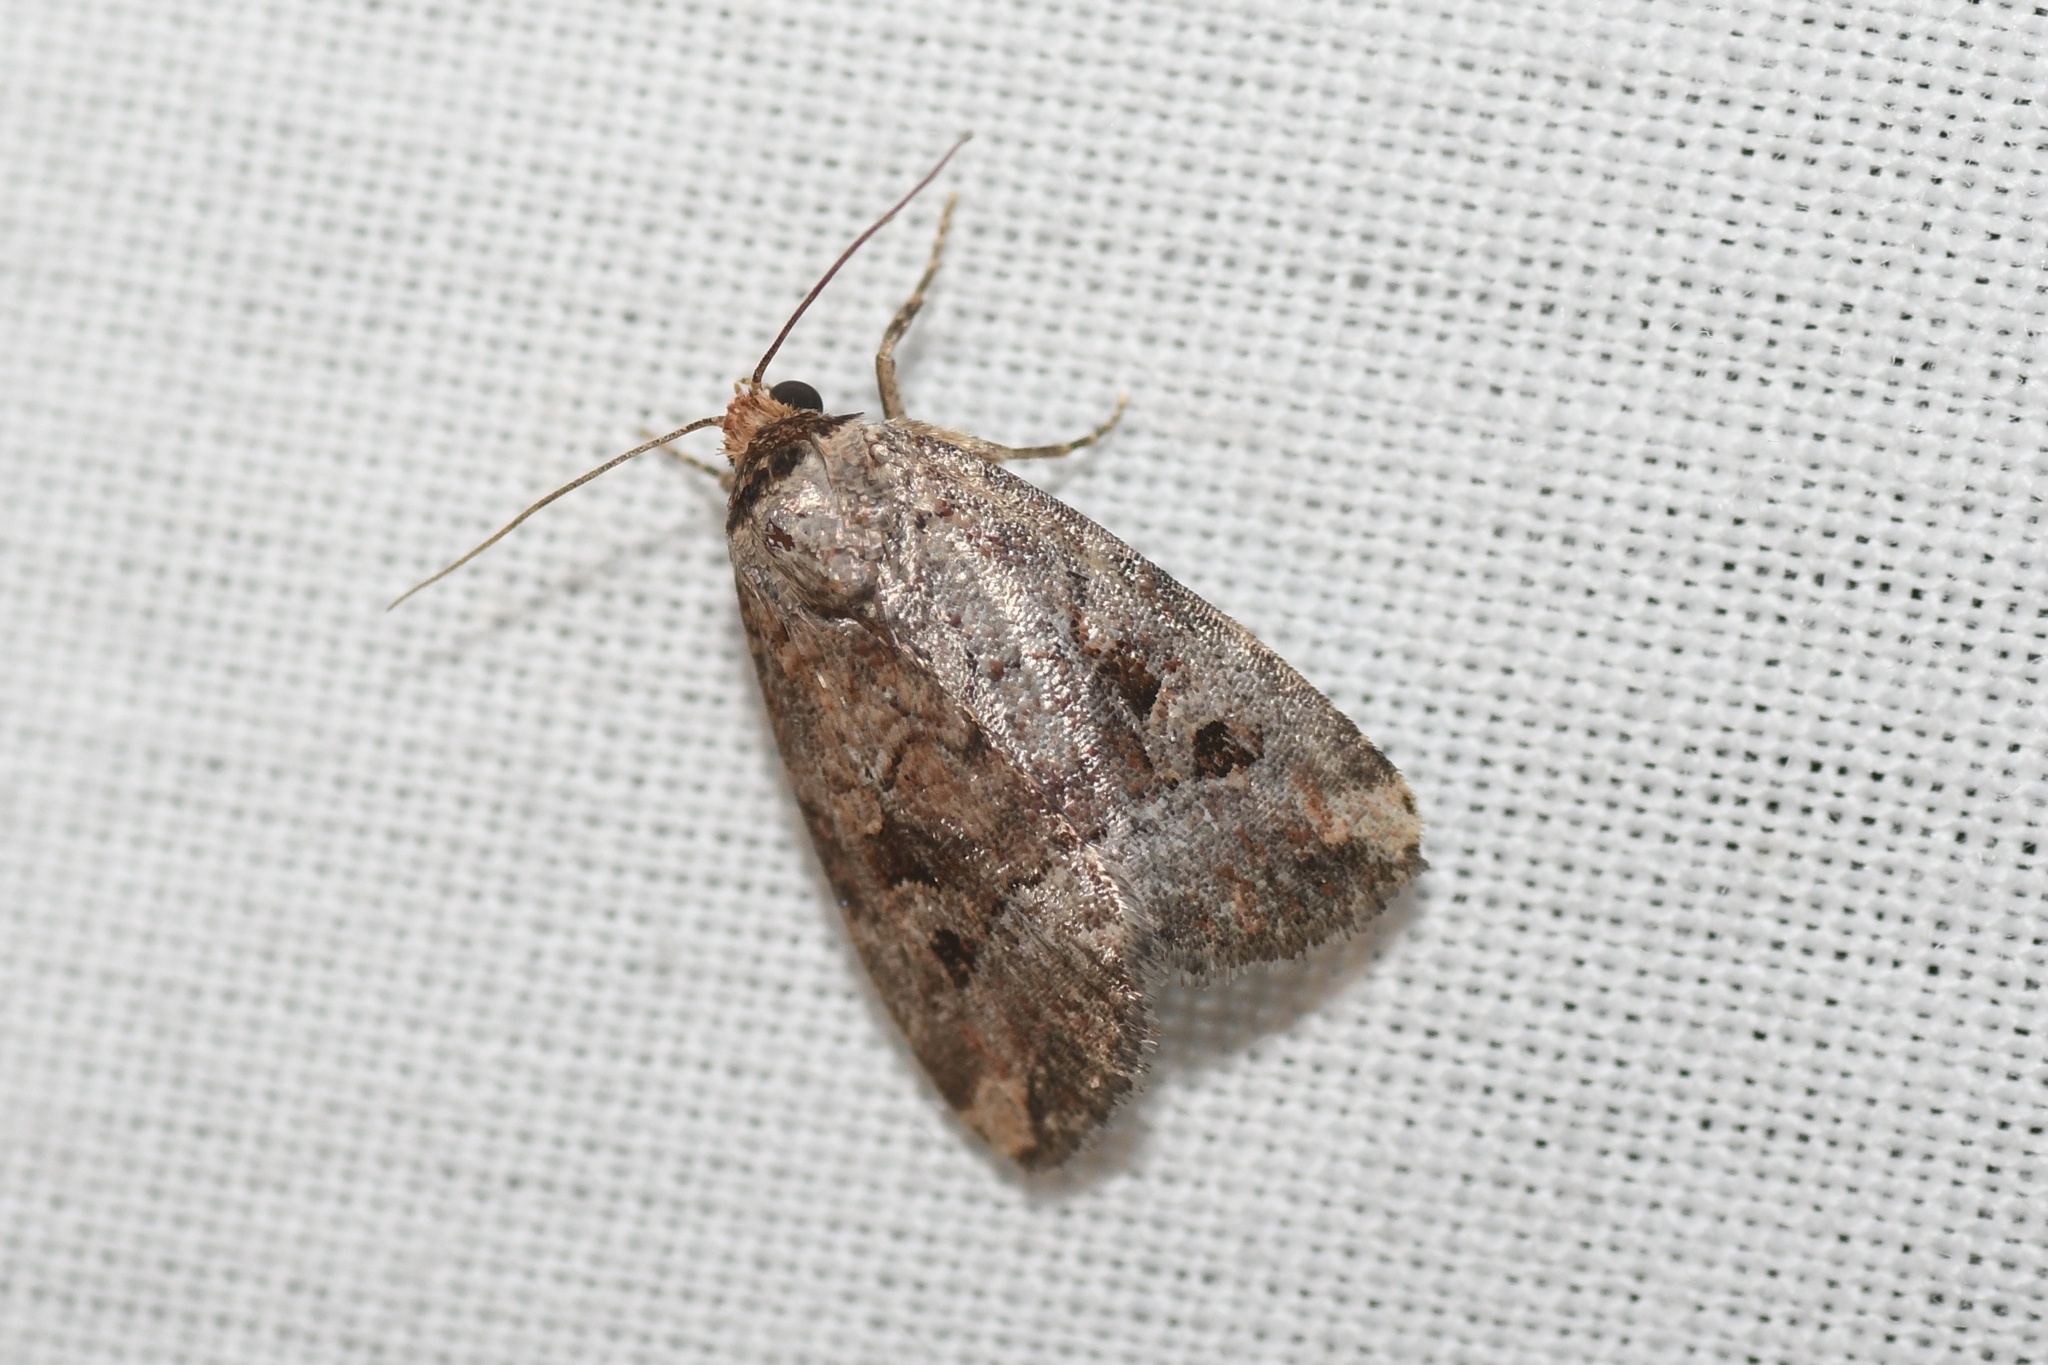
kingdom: Animalia
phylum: Arthropoda
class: Insecta
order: Lepidoptera
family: Noctuidae
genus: Elaphria
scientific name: Elaphria alapallida
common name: Pale-winged midget
